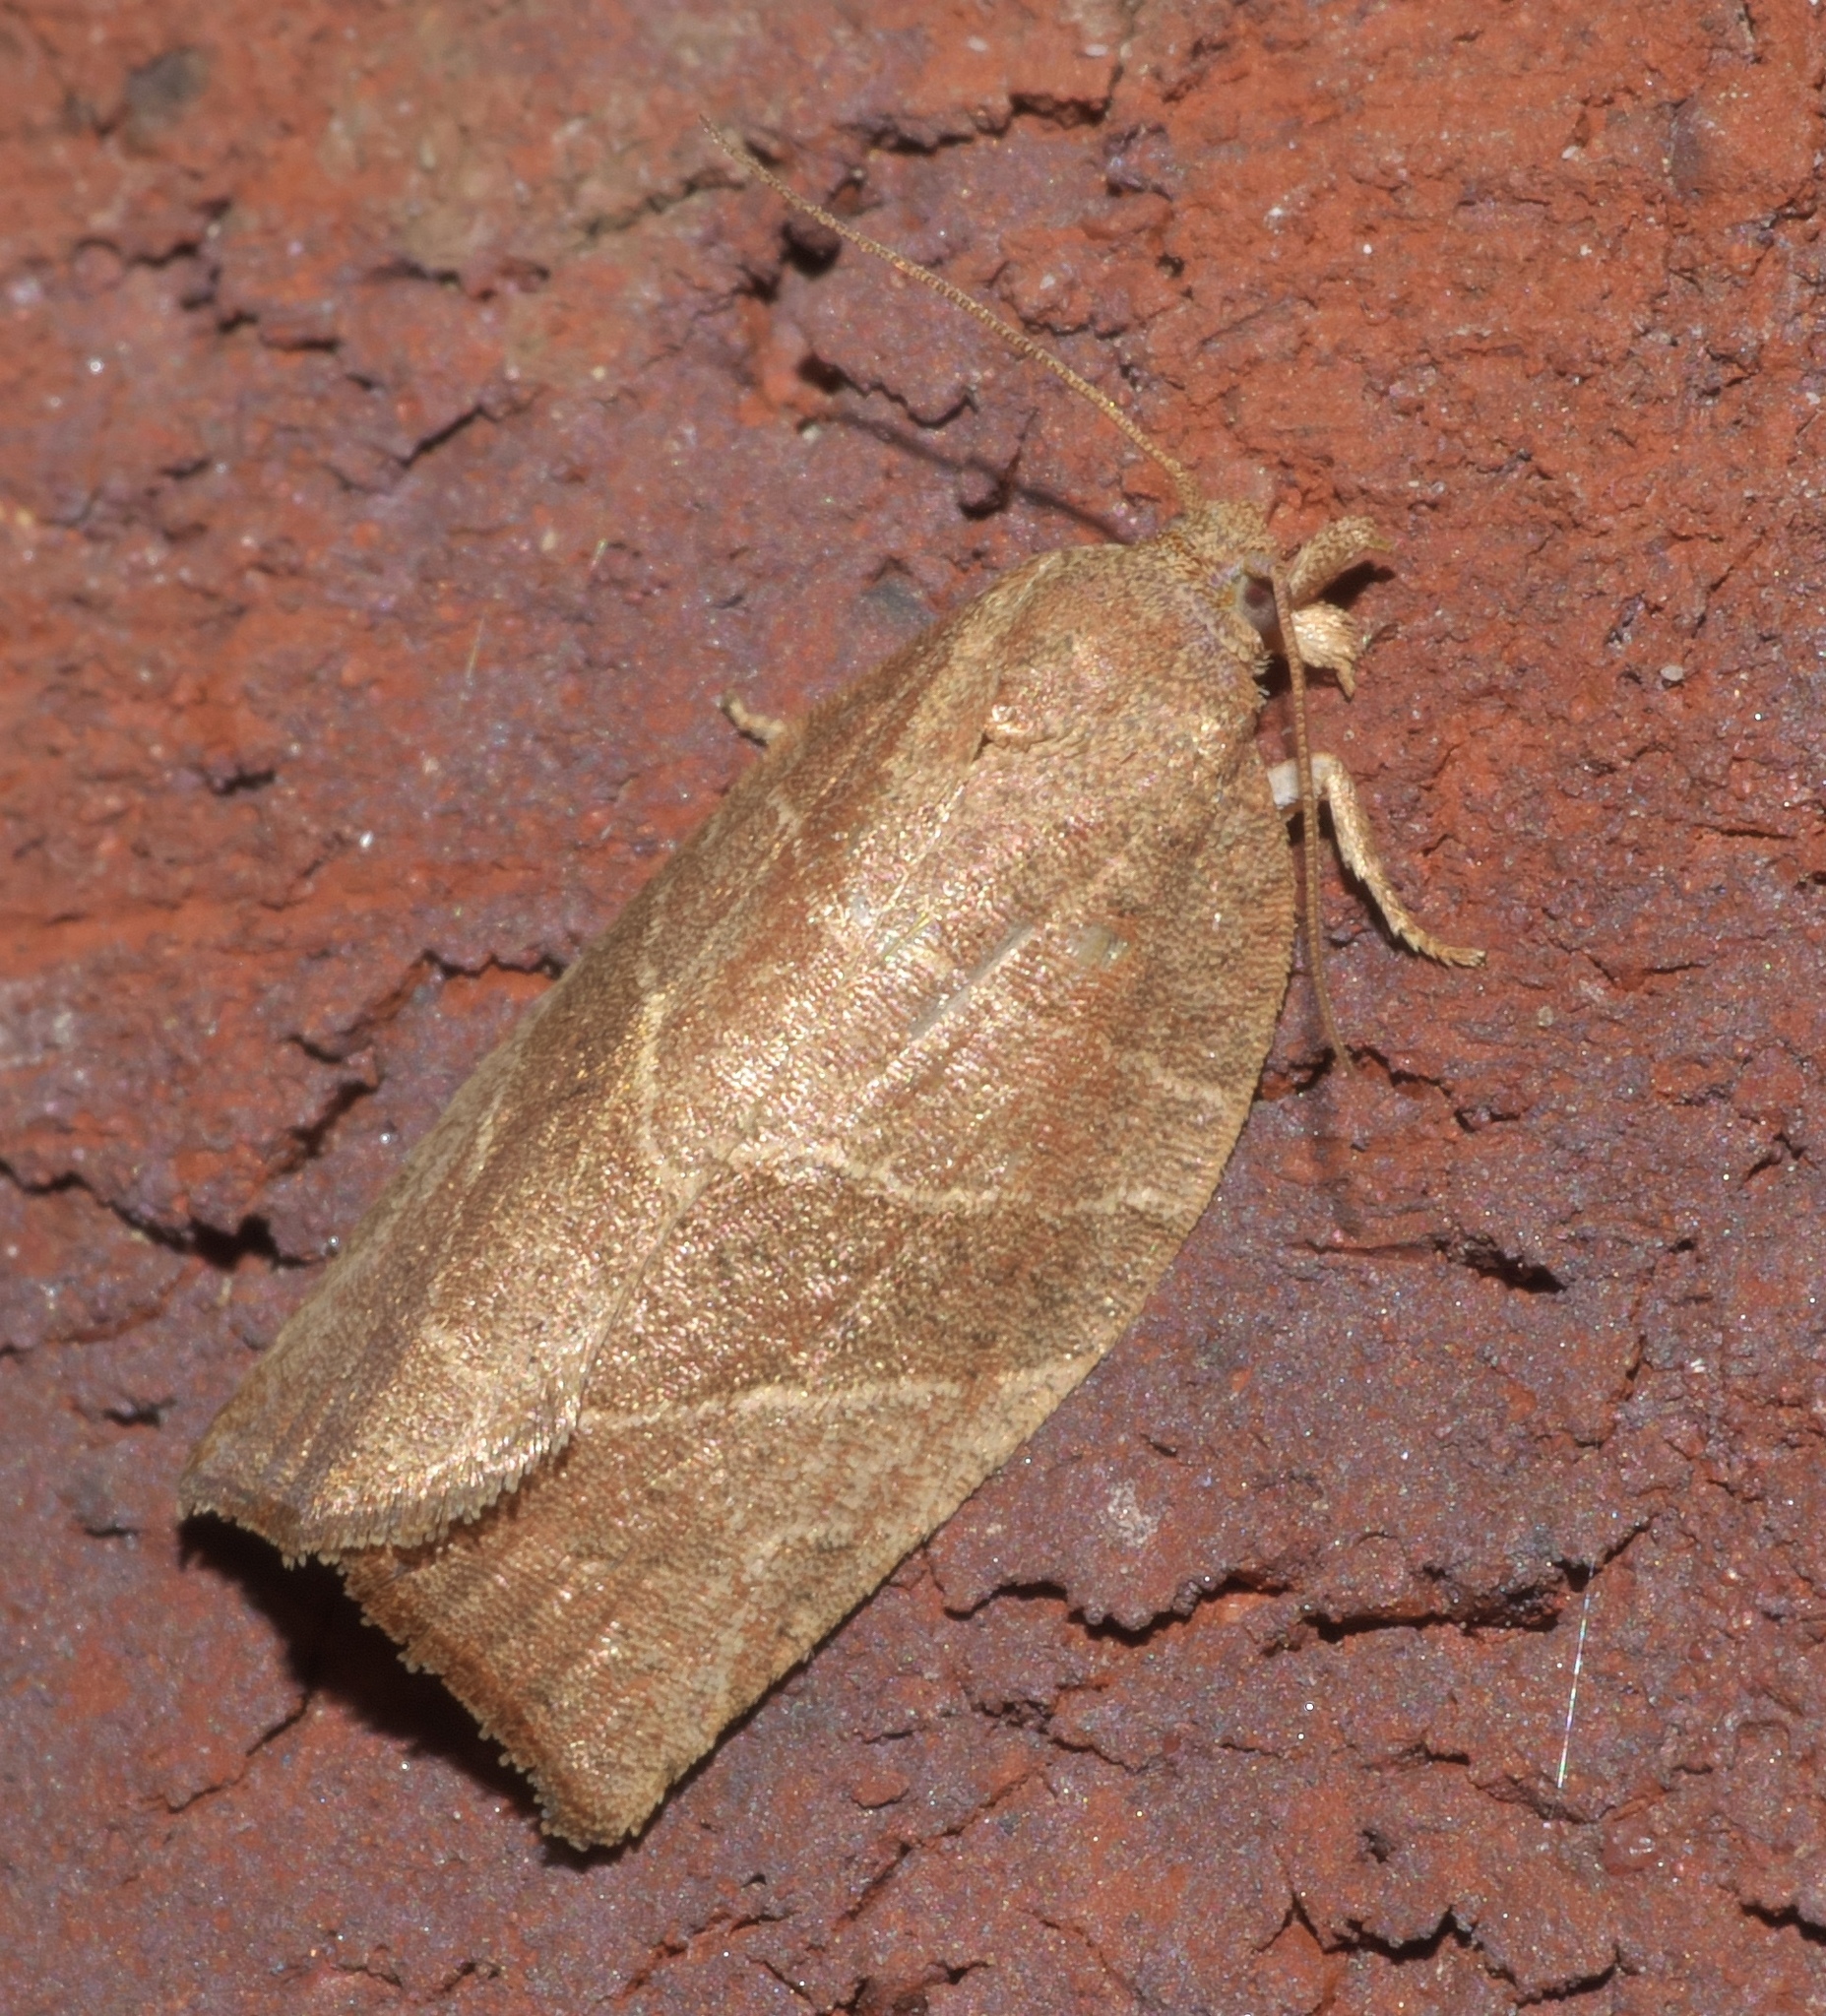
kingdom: Animalia
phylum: Arthropoda
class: Insecta
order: Lepidoptera
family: Tortricidae
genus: Pandemis
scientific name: Pandemis limitata
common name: Three-lined leafroller moth
